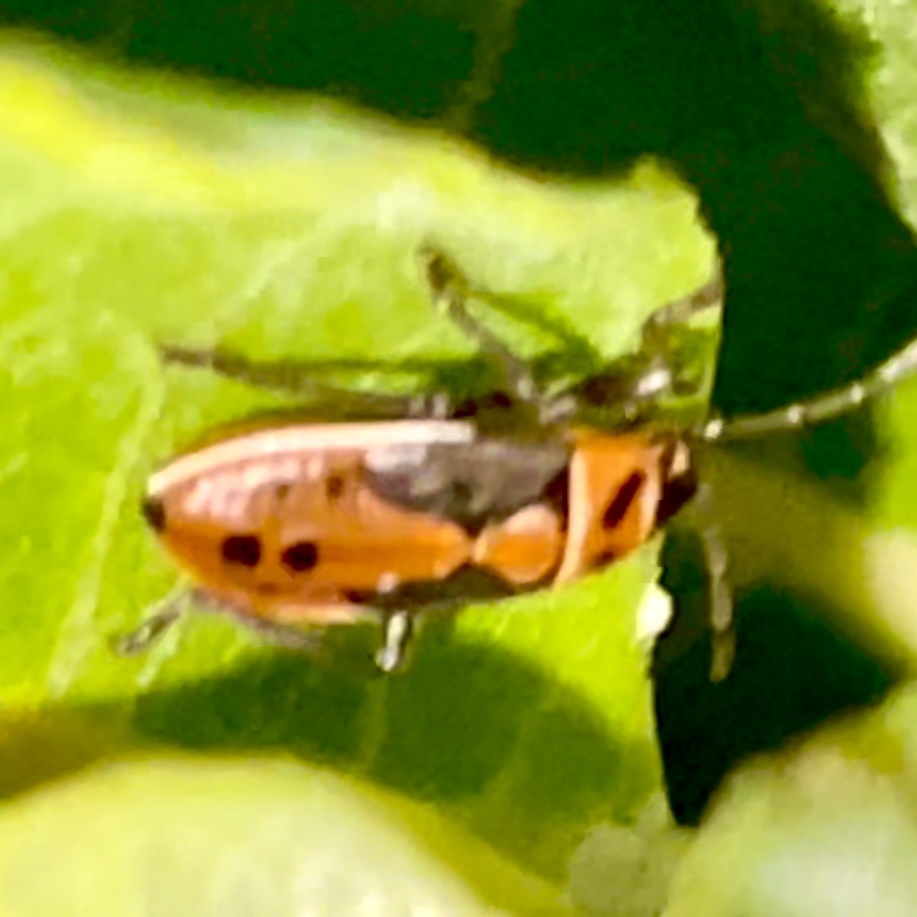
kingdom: Animalia
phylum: Arthropoda
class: Insecta
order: Hemiptera
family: Lygaeidae
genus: Lygaeus
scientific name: Lygaeus kalmii
